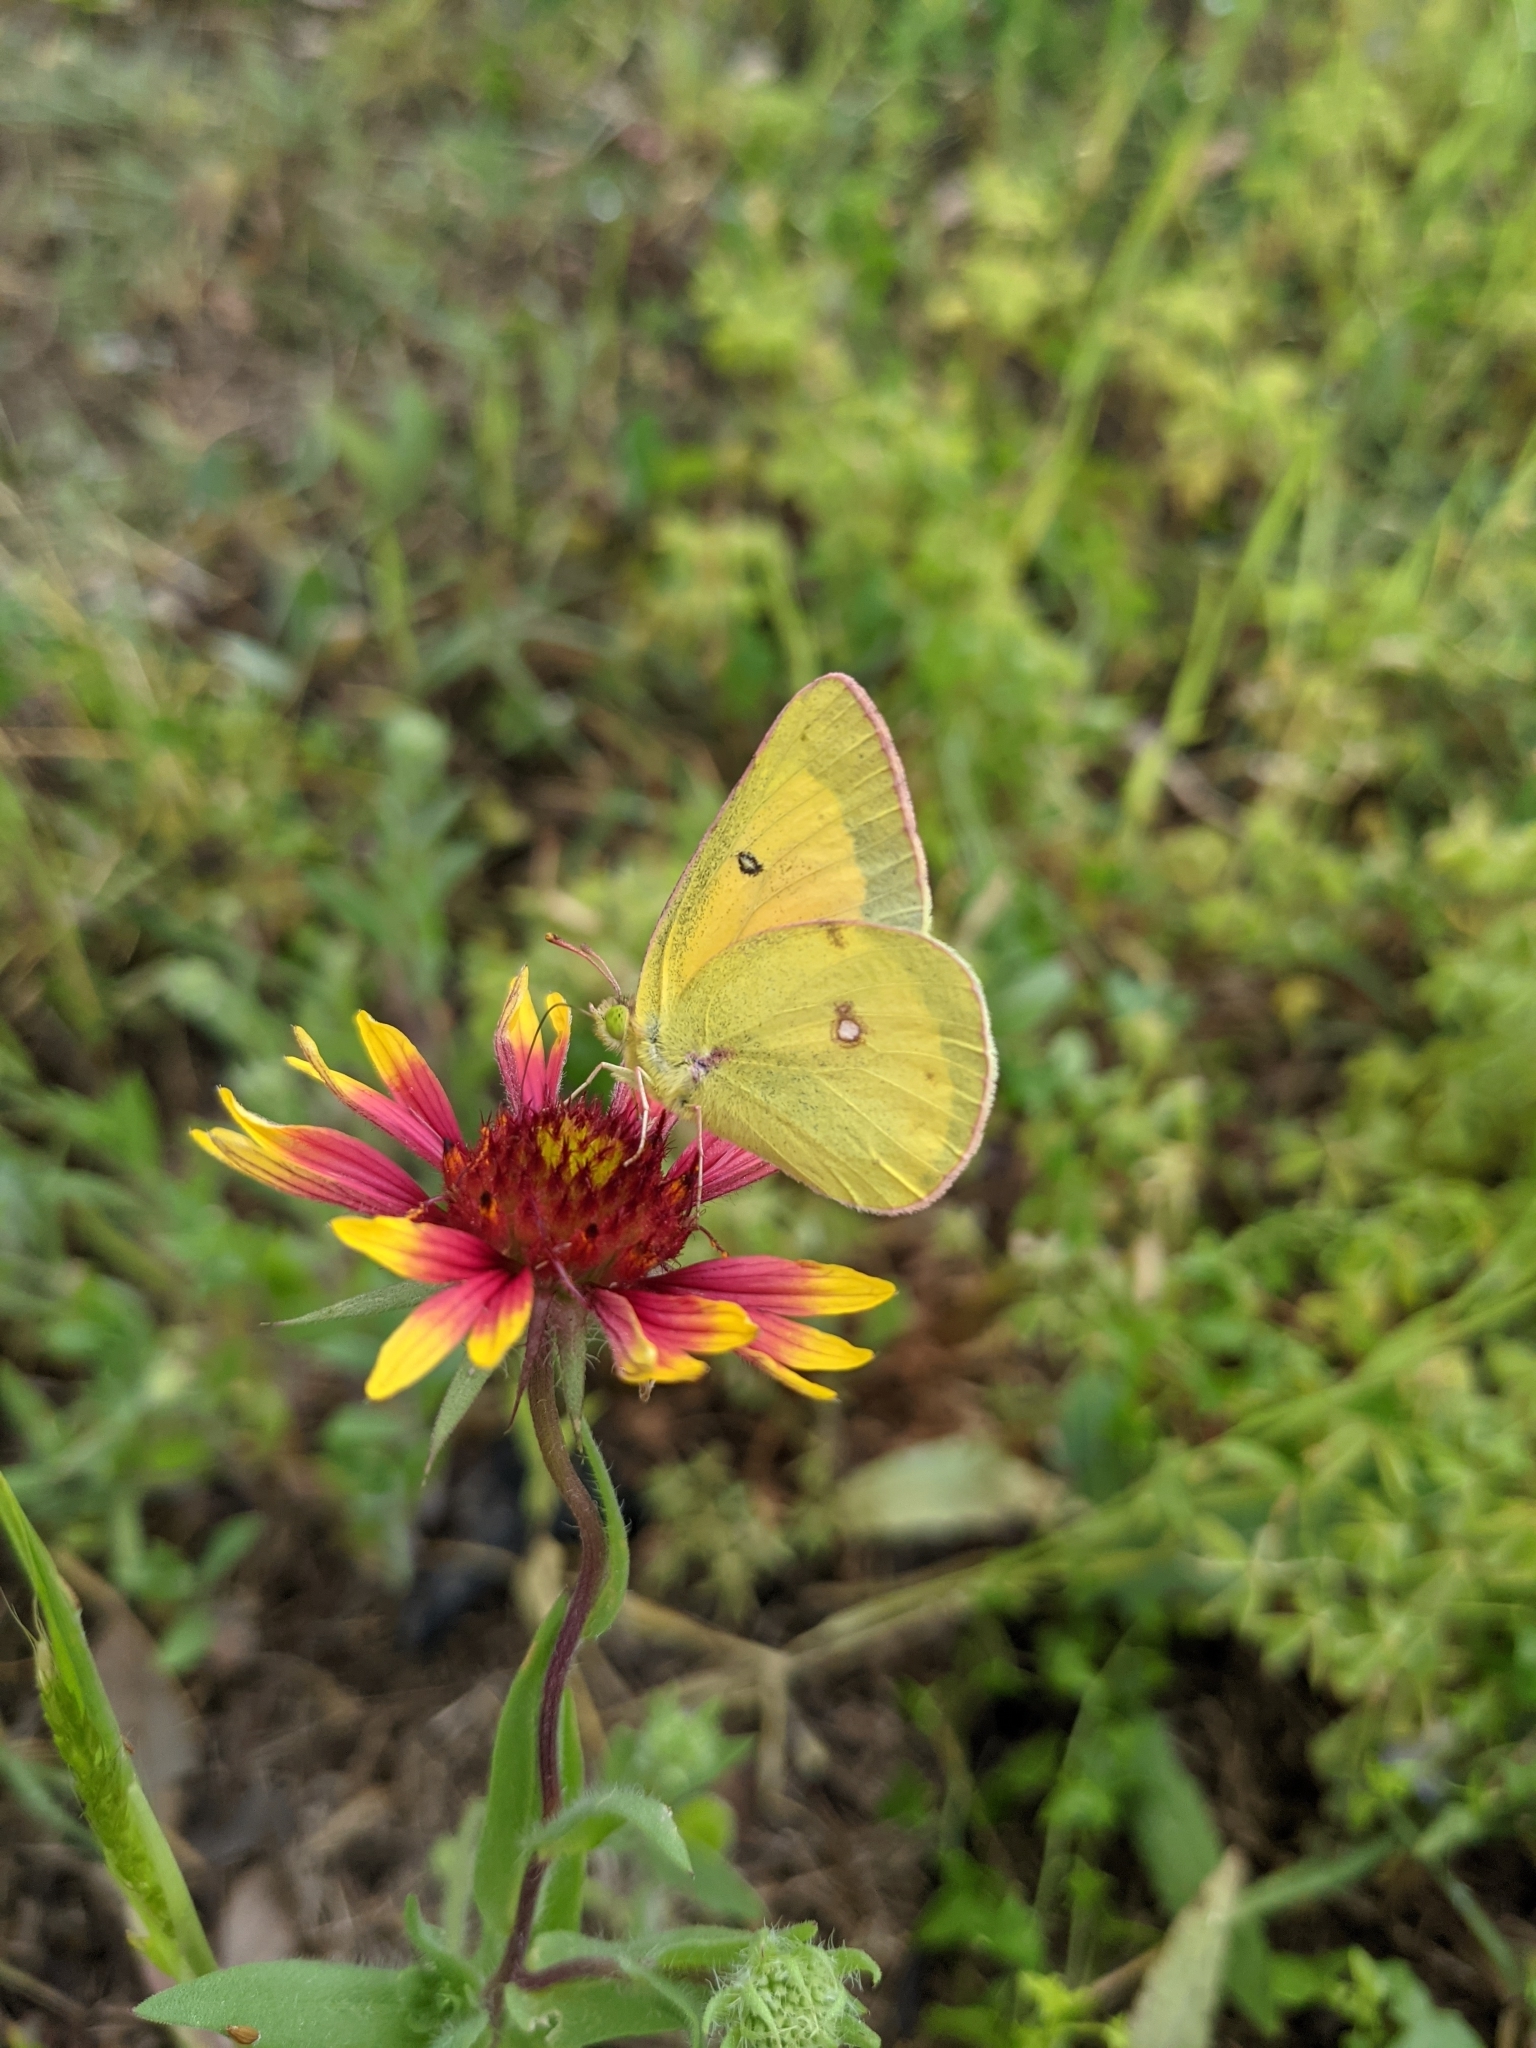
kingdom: Animalia
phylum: Arthropoda
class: Insecta
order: Lepidoptera
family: Pieridae
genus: Colias
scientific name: Colias eurytheme
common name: Alfalfa butterfly
